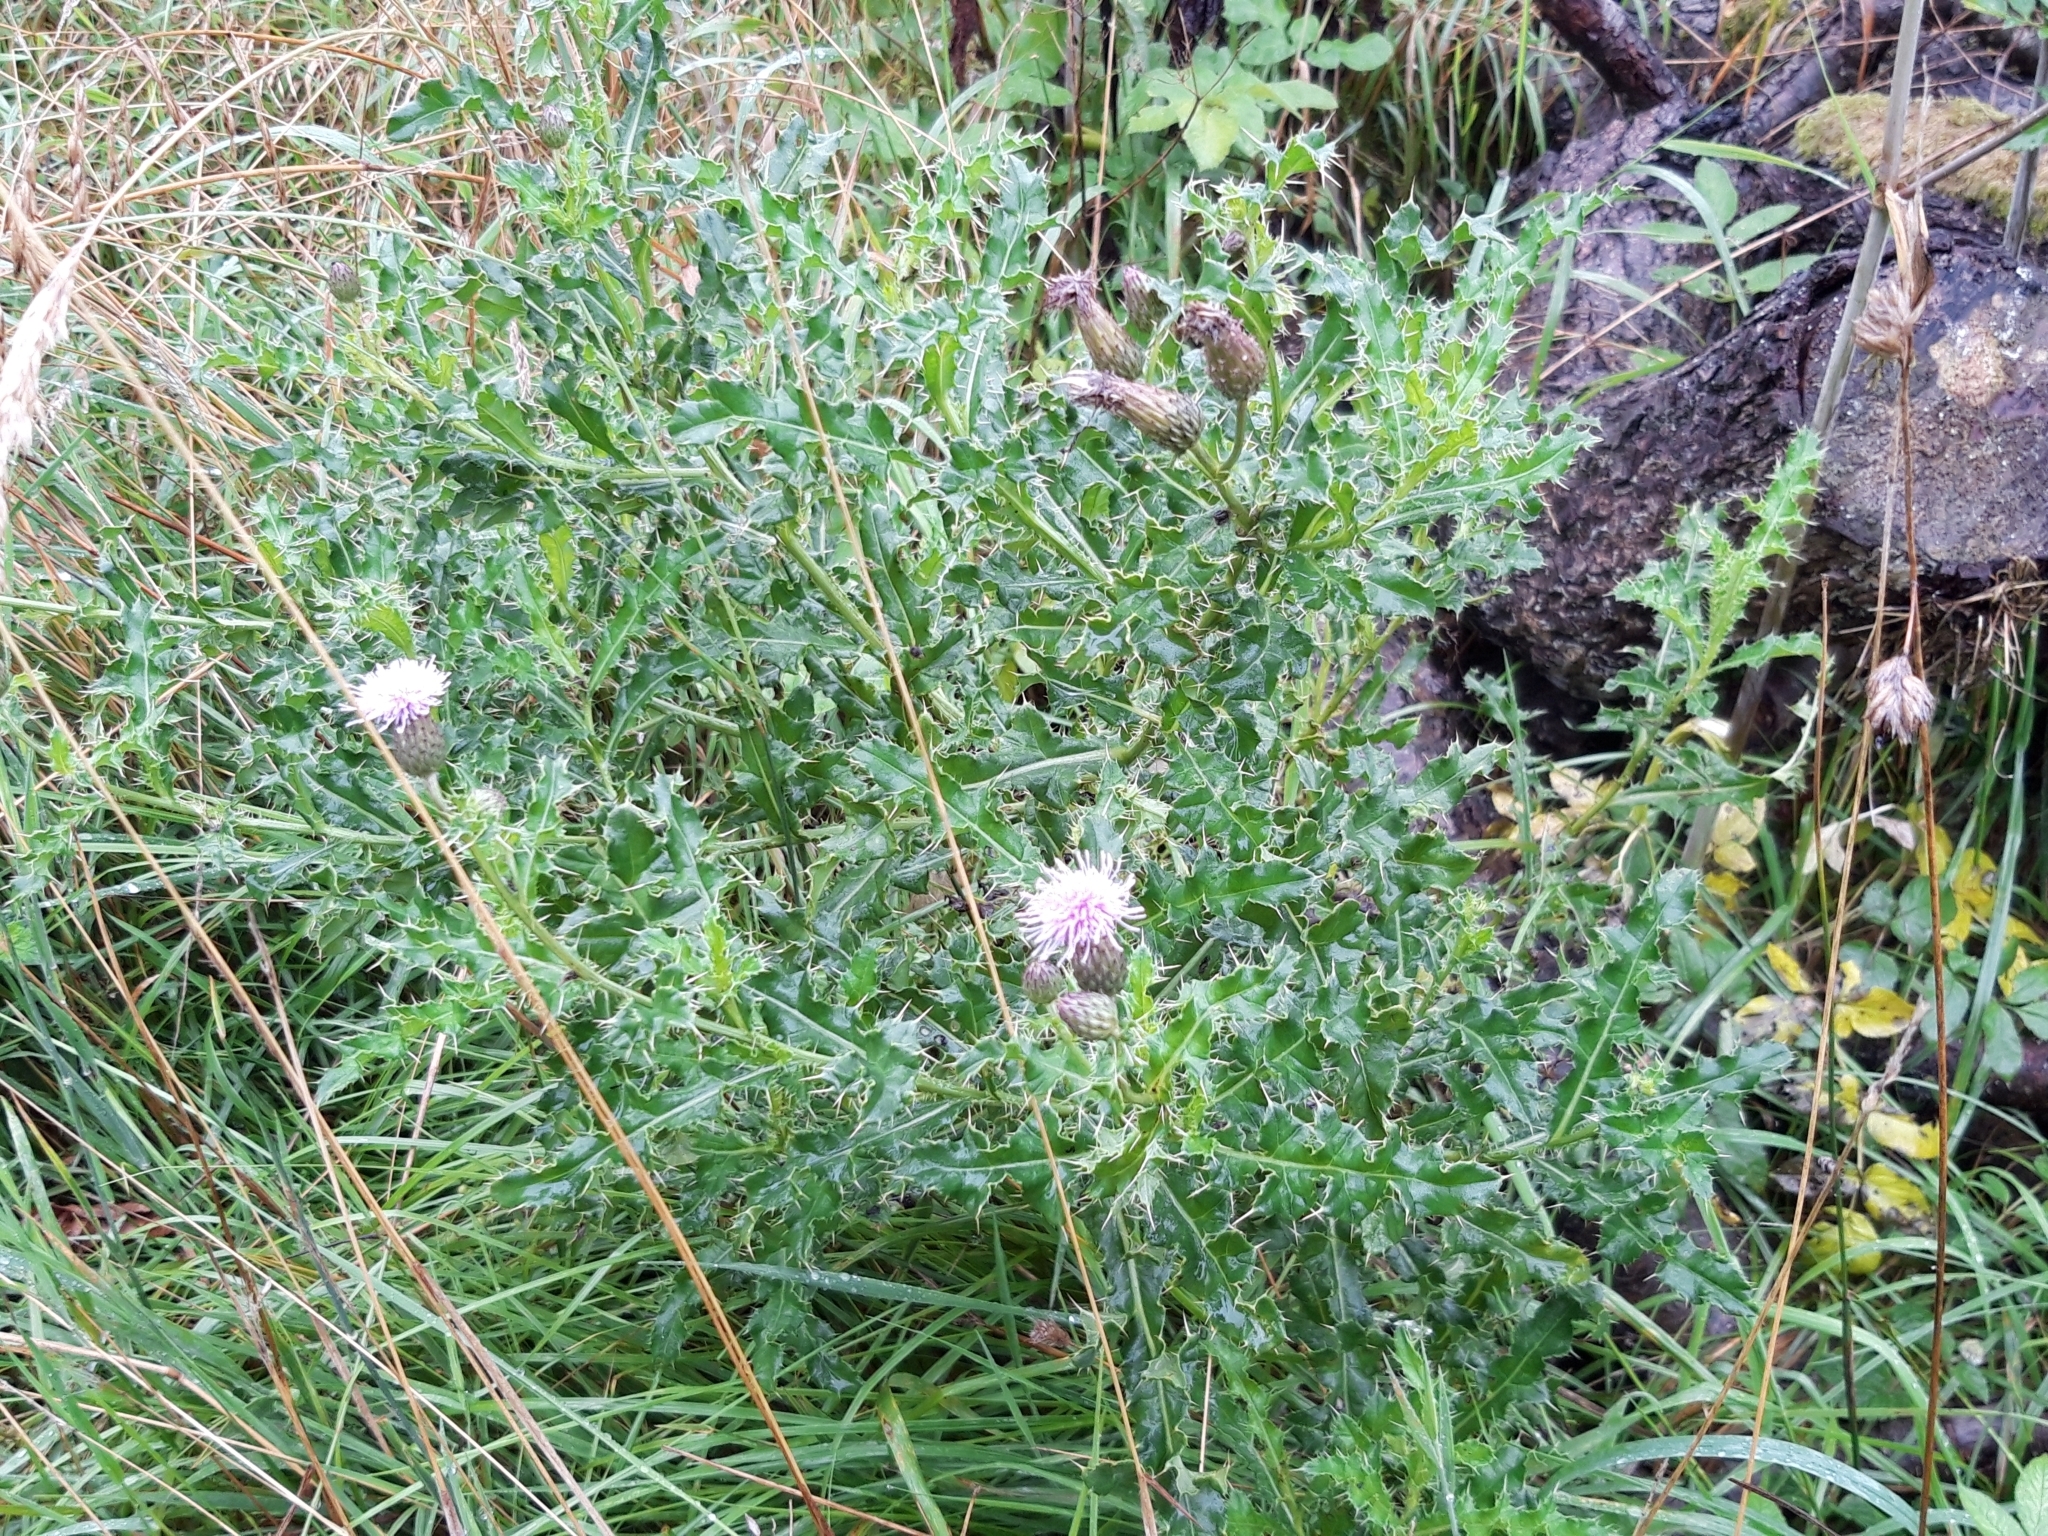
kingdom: Plantae
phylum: Tracheophyta
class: Magnoliopsida
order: Asterales
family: Asteraceae
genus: Cirsium
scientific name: Cirsium arvense
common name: Creeping thistle
